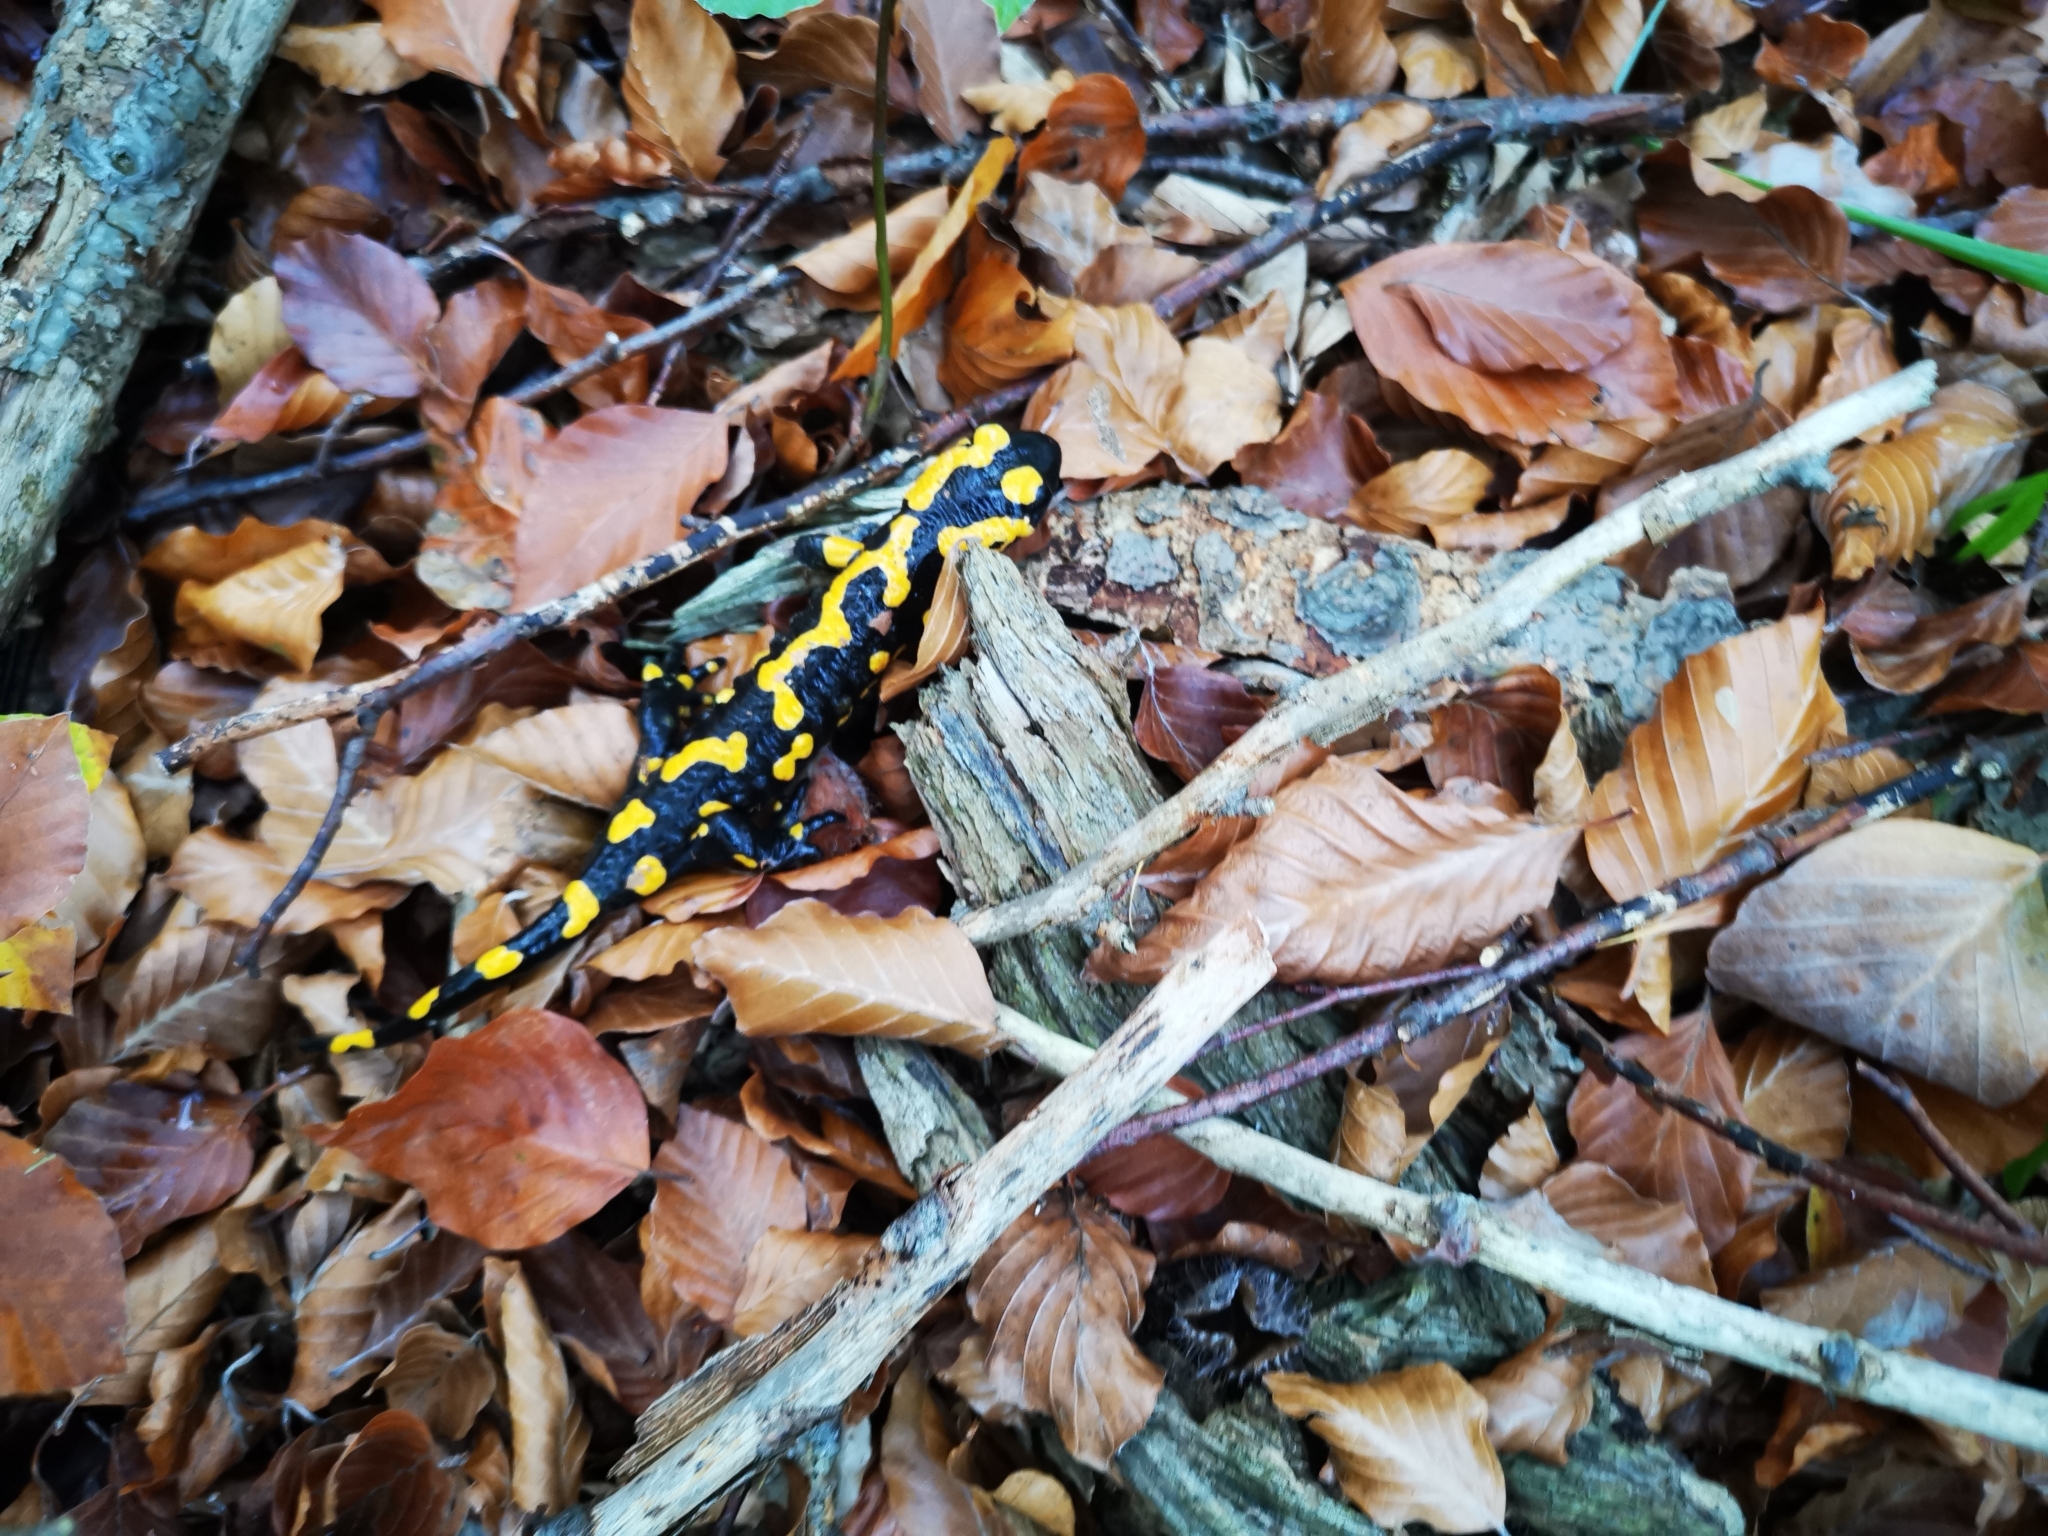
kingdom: Animalia
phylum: Chordata
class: Amphibia
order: Caudata
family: Salamandridae
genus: Salamandra
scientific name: Salamandra salamandra
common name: Fire salamander
